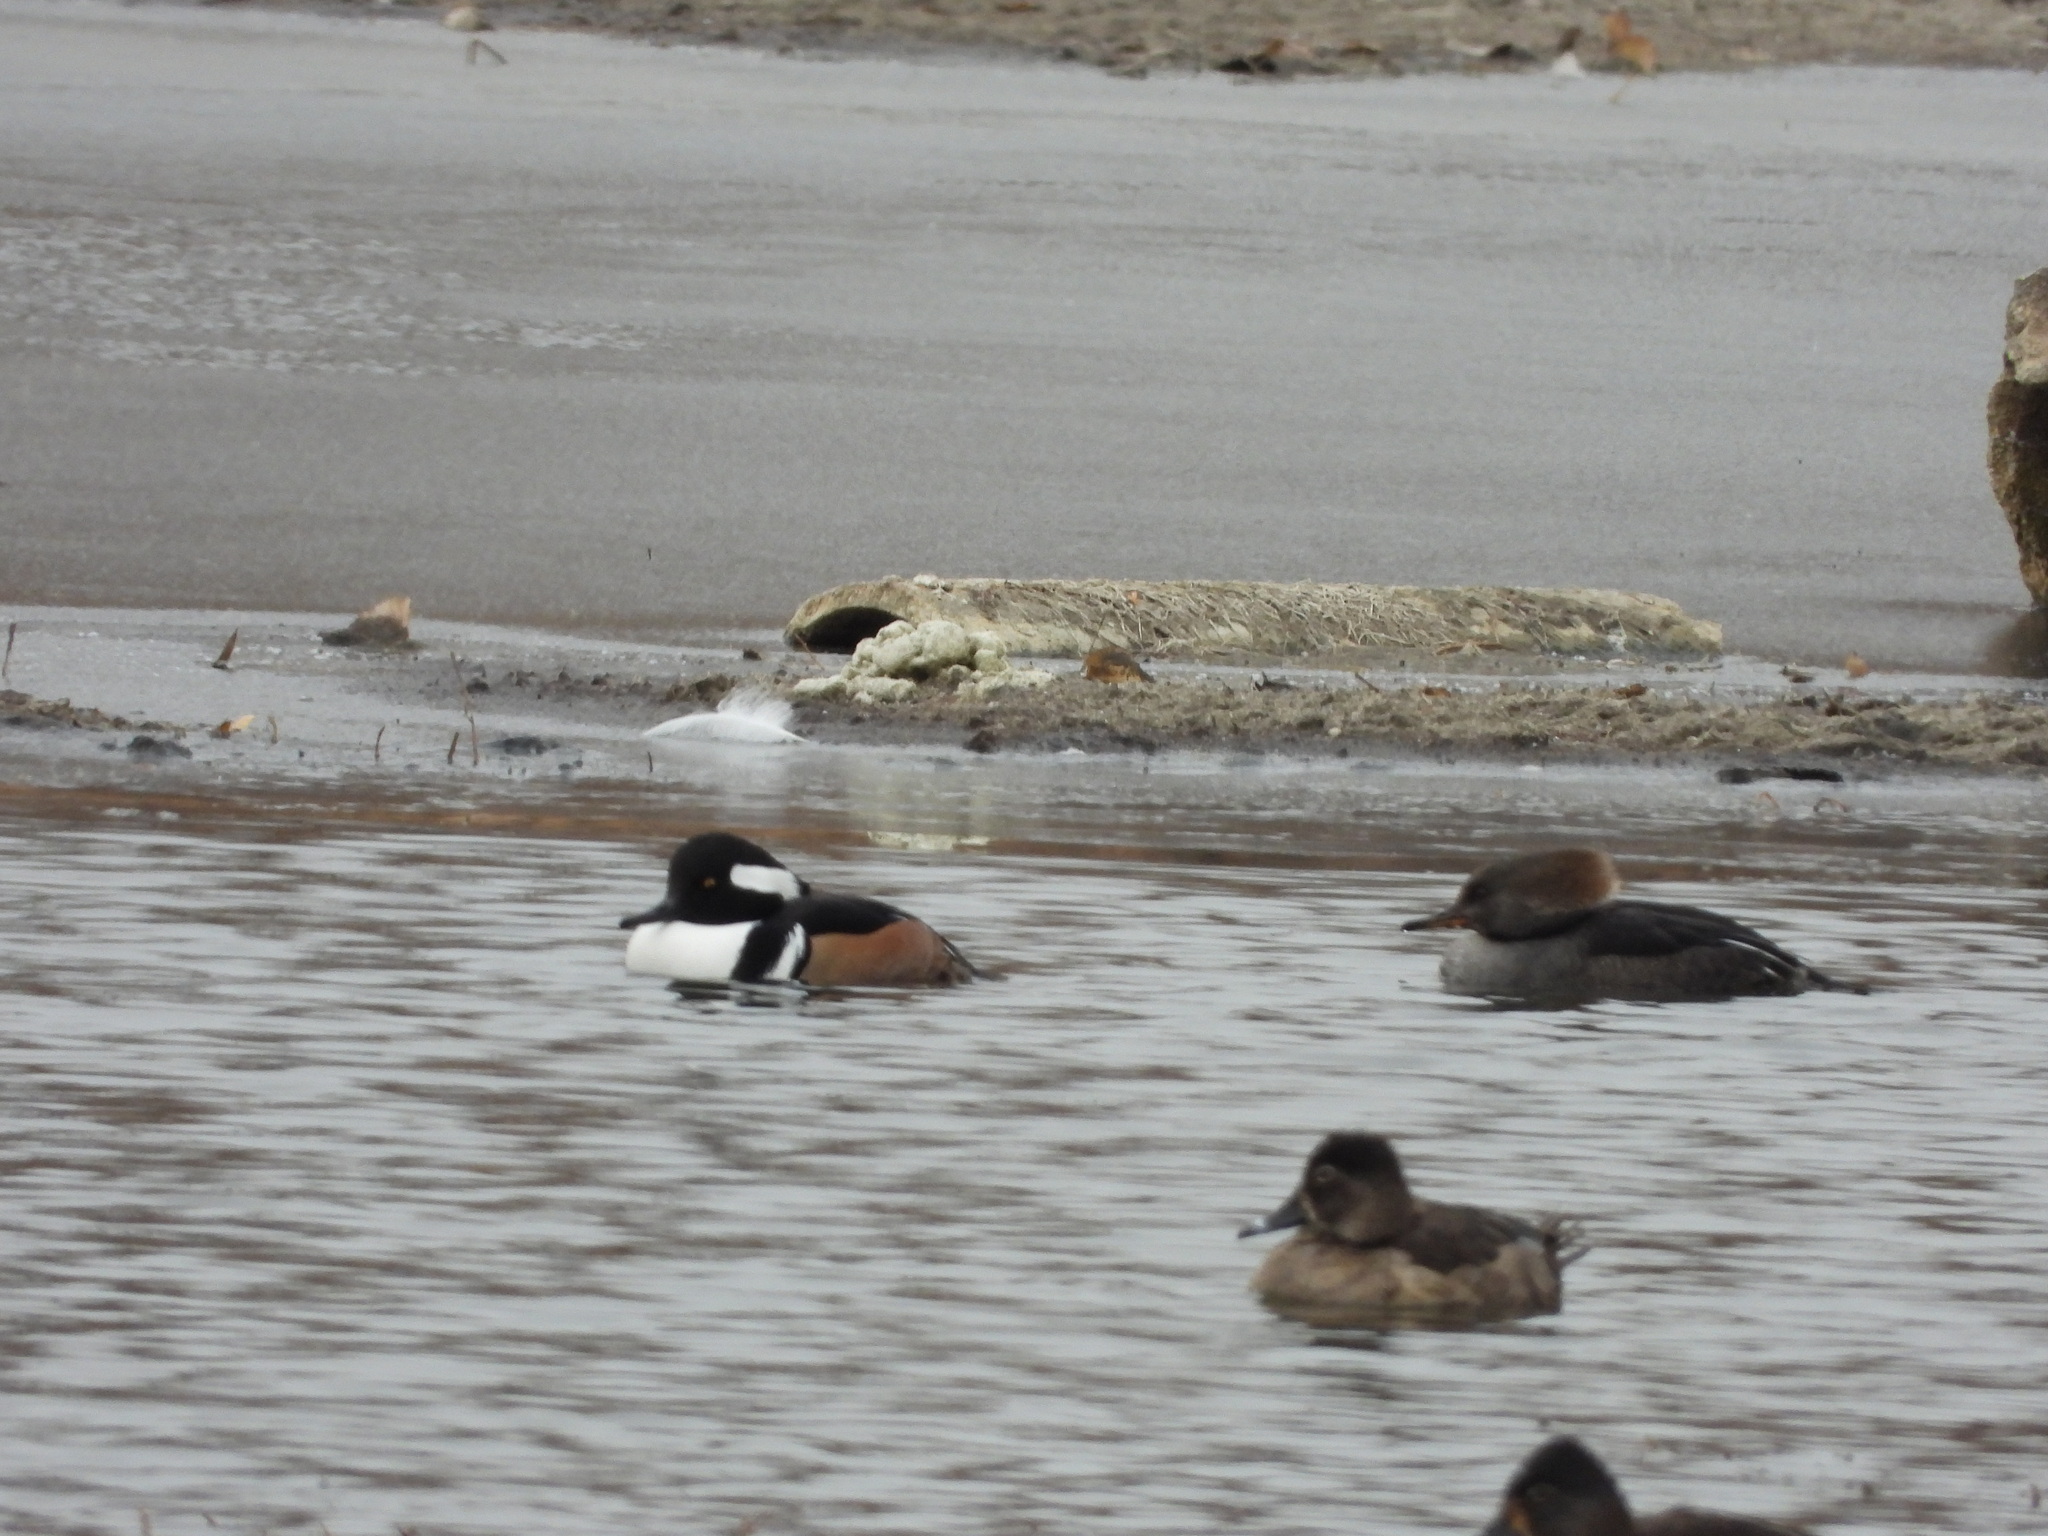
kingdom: Animalia
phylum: Chordata
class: Aves
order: Anseriformes
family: Anatidae
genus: Lophodytes
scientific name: Lophodytes cucullatus
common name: Hooded merganser
